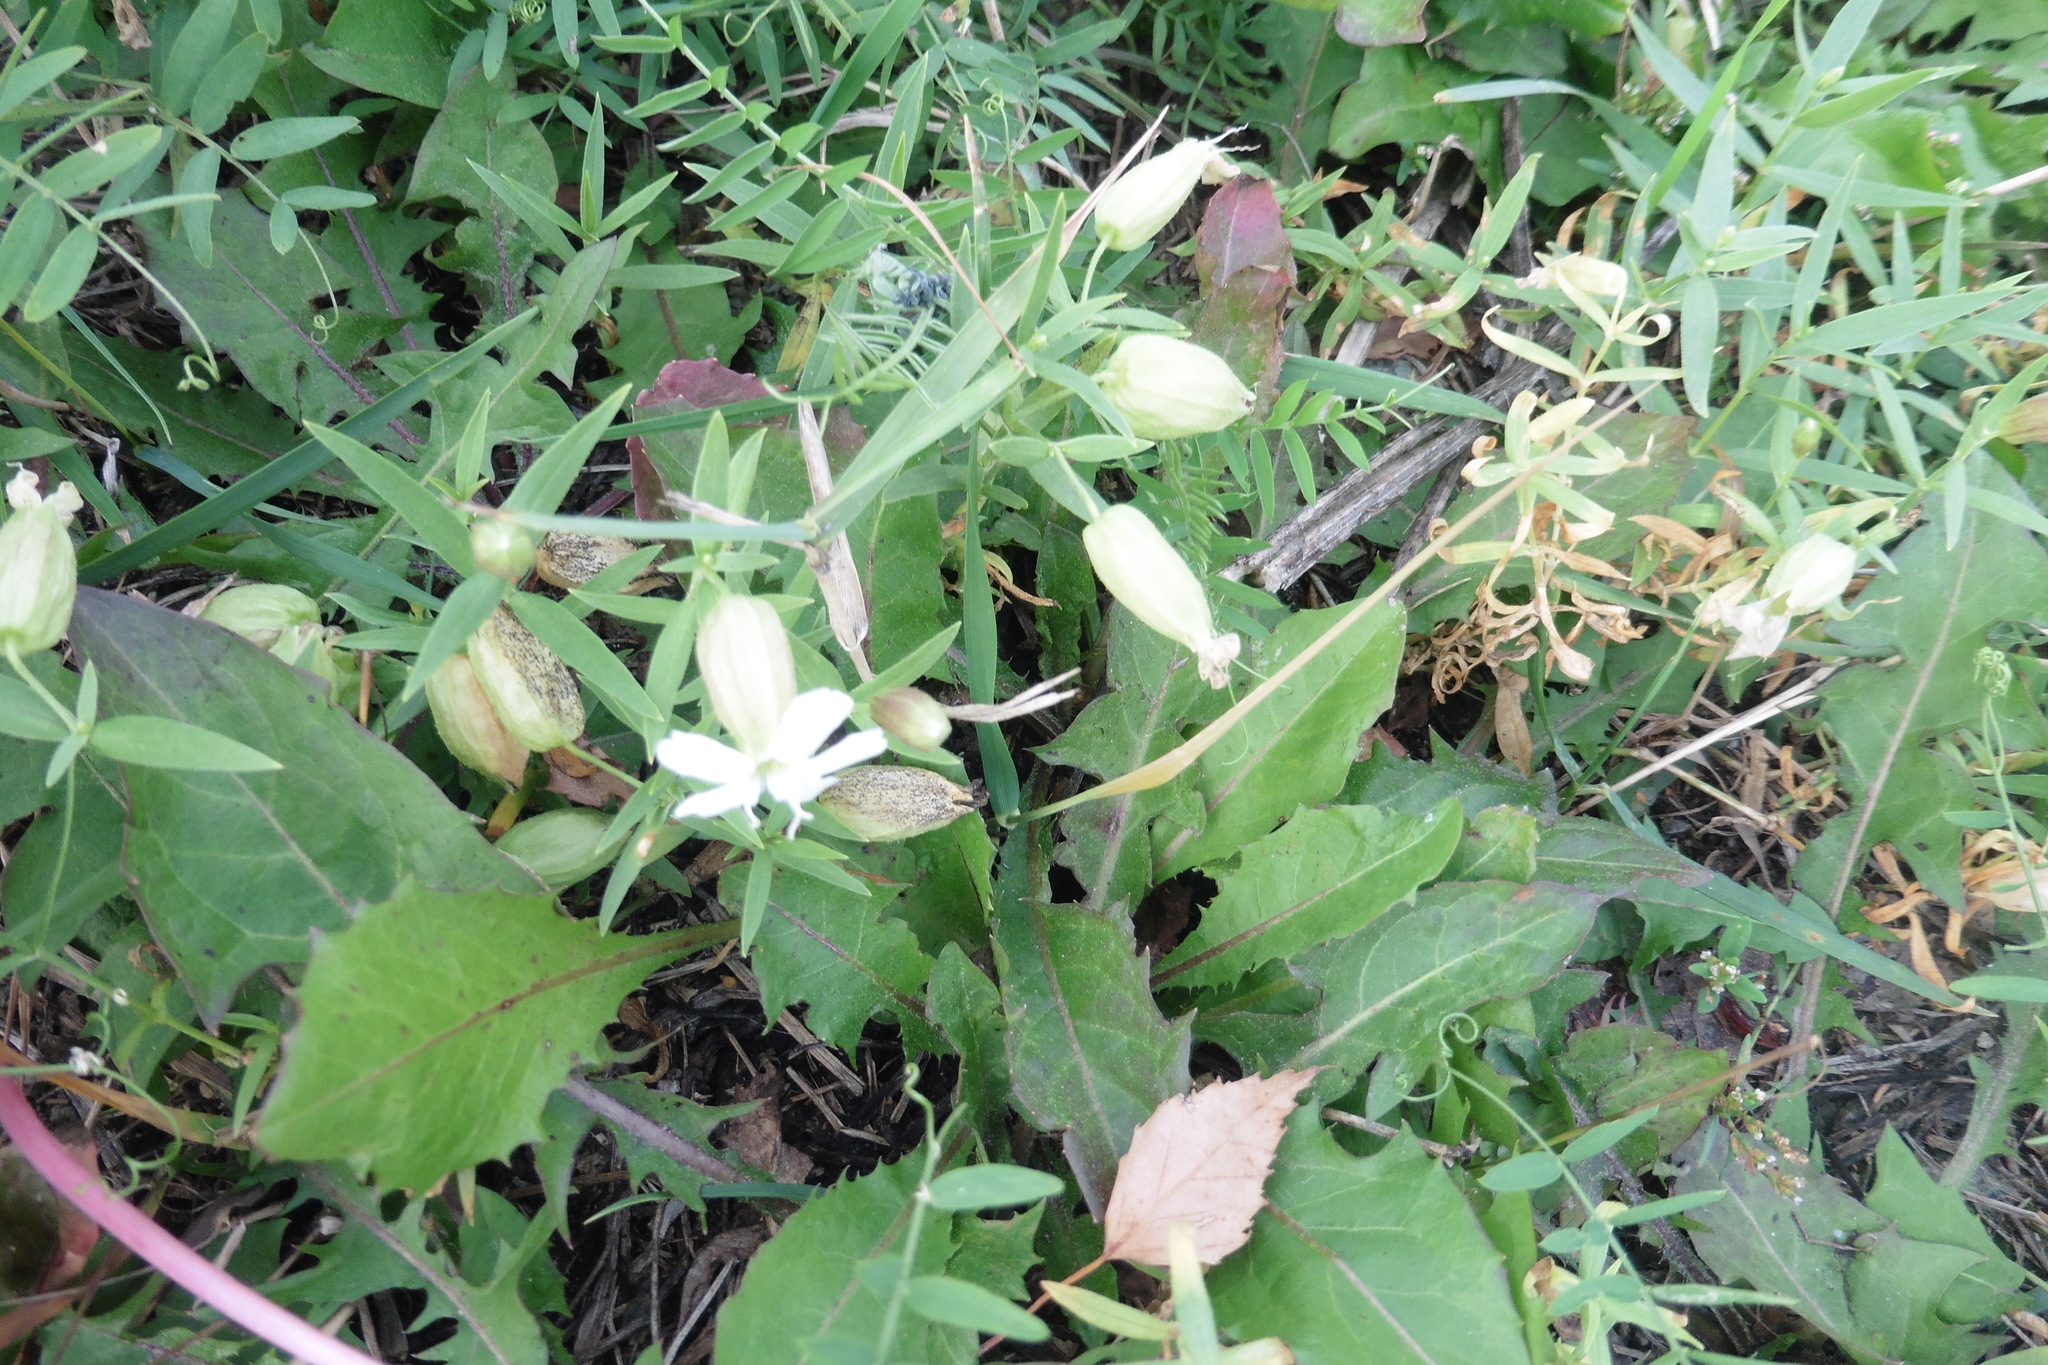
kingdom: Plantae
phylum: Tracheophyta
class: Magnoliopsida
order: Caryophyllales
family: Caryophyllaceae
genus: Silene
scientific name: Silene procumbens
